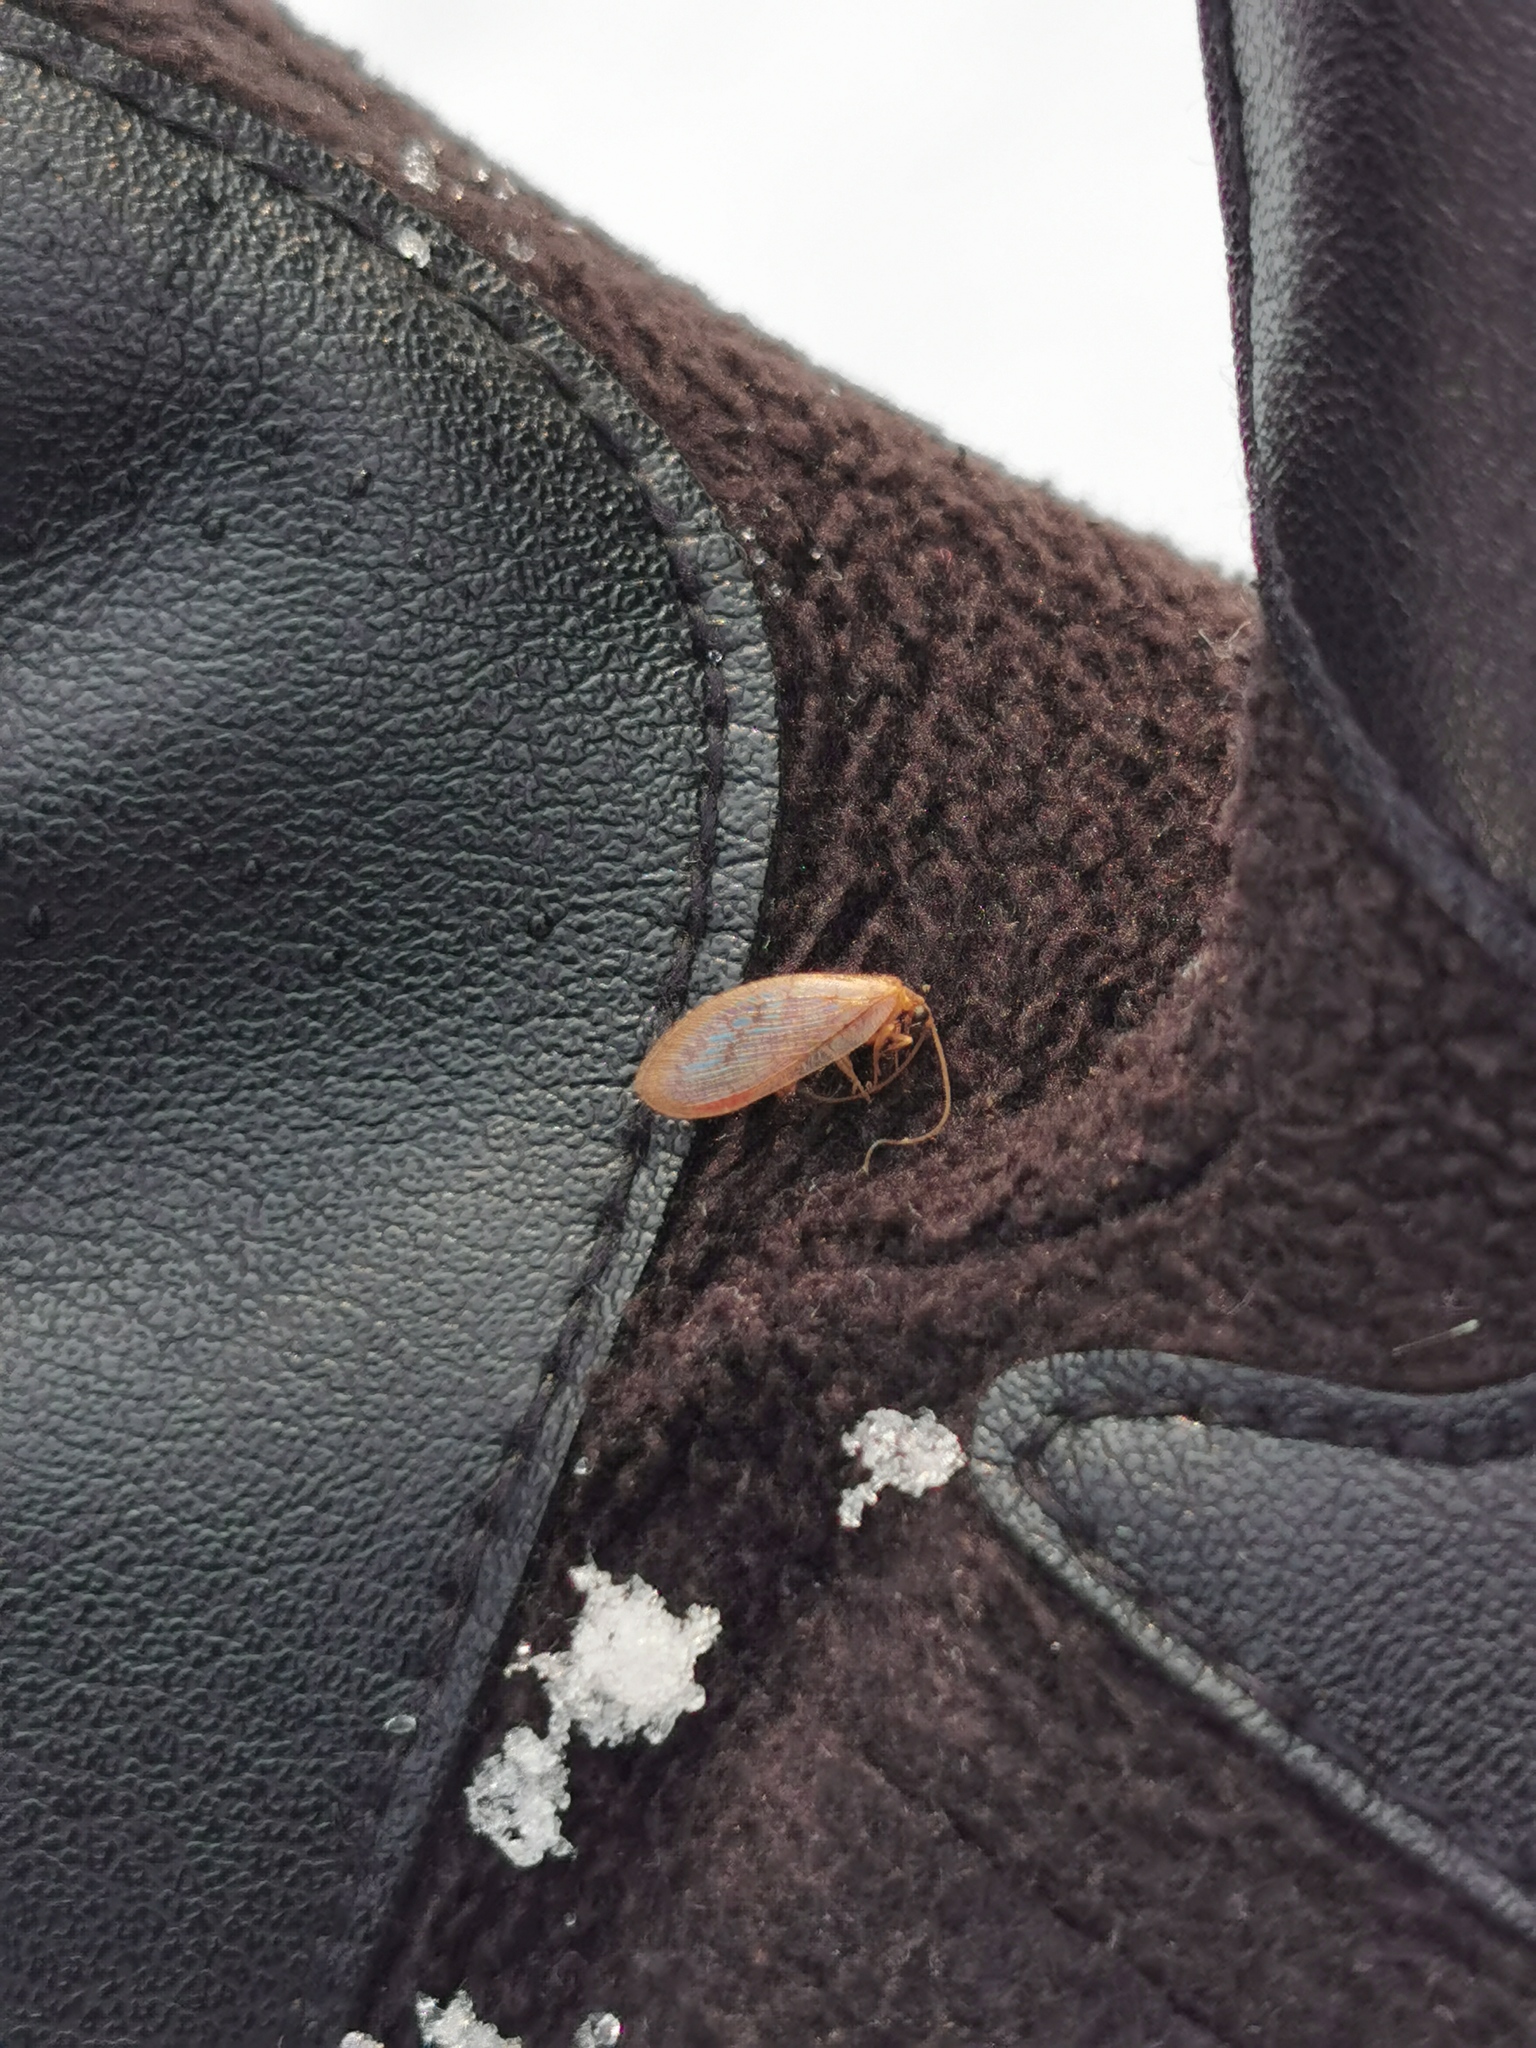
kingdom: Animalia
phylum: Arthropoda
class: Insecta
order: Neuroptera
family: Hemerobiidae
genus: Hemerobius
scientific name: Hemerobius stigma
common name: Brown pine lacewing
